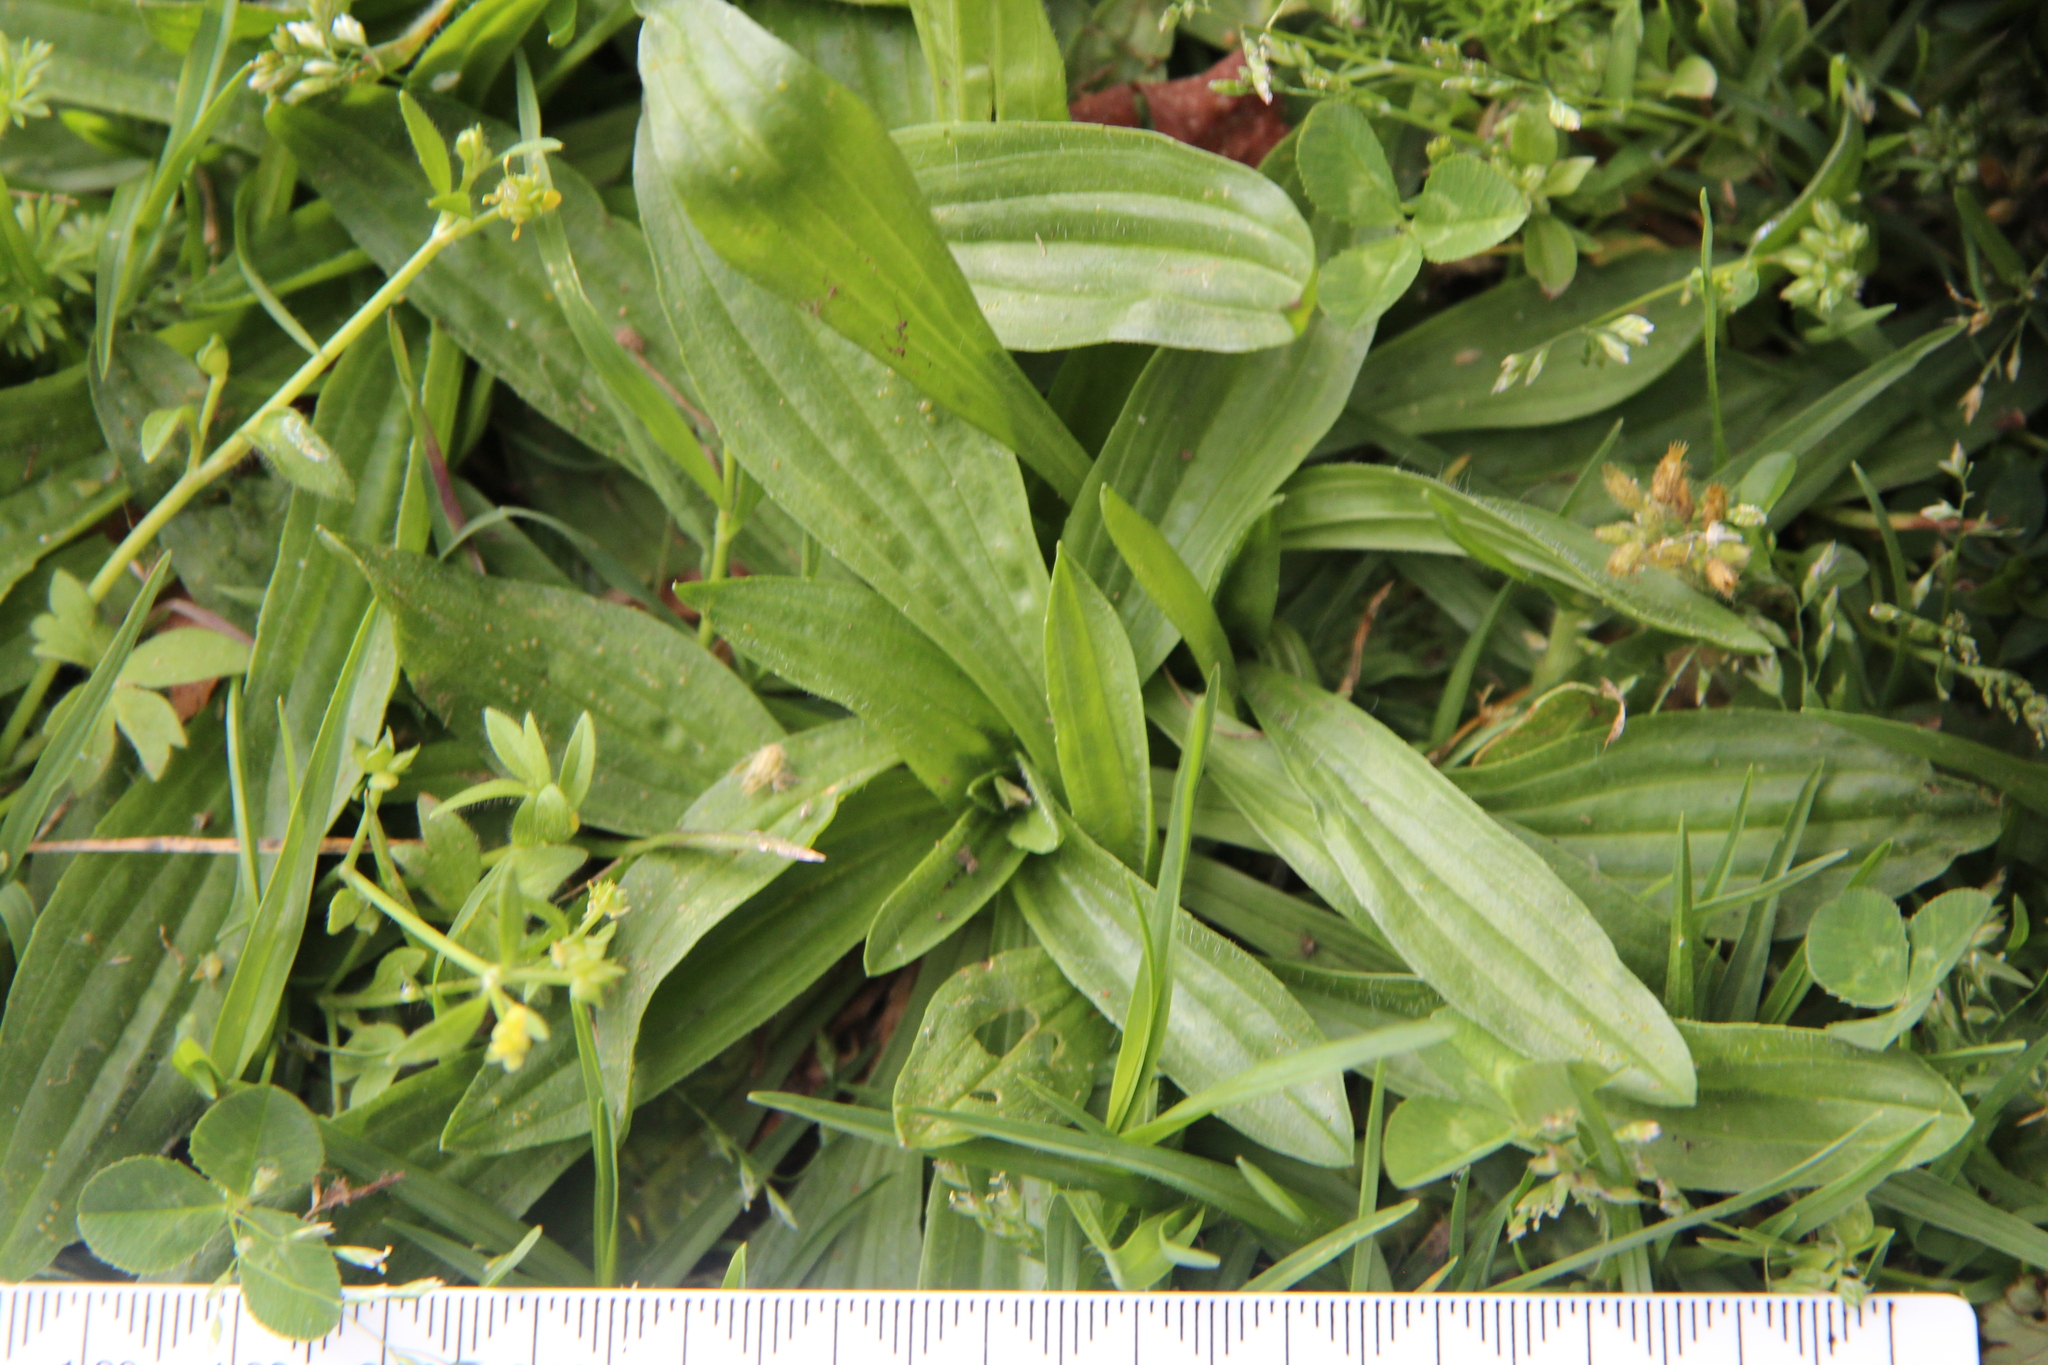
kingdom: Plantae
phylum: Tracheophyta
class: Magnoliopsida
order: Lamiales
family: Plantaginaceae
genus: Plantago
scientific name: Plantago lanceolata
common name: Ribwort plantain
